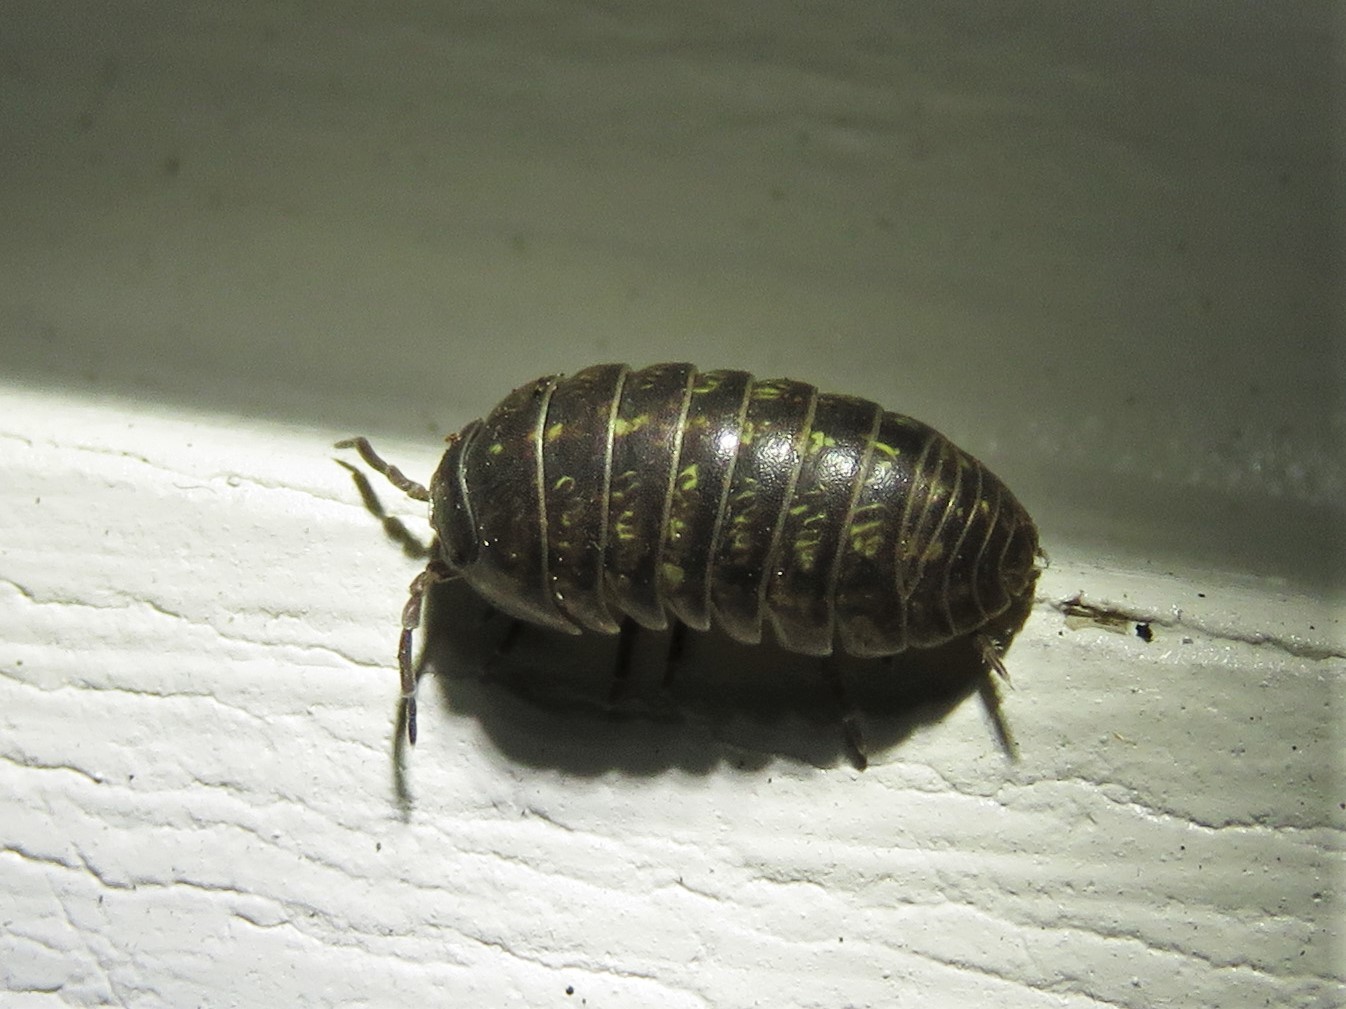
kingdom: Animalia
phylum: Arthropoda
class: Malacostraca
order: Isopoda
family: Armadillidiidae
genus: Armadillidium
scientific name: Armadillidium vulgare
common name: Common pill woodlouse
